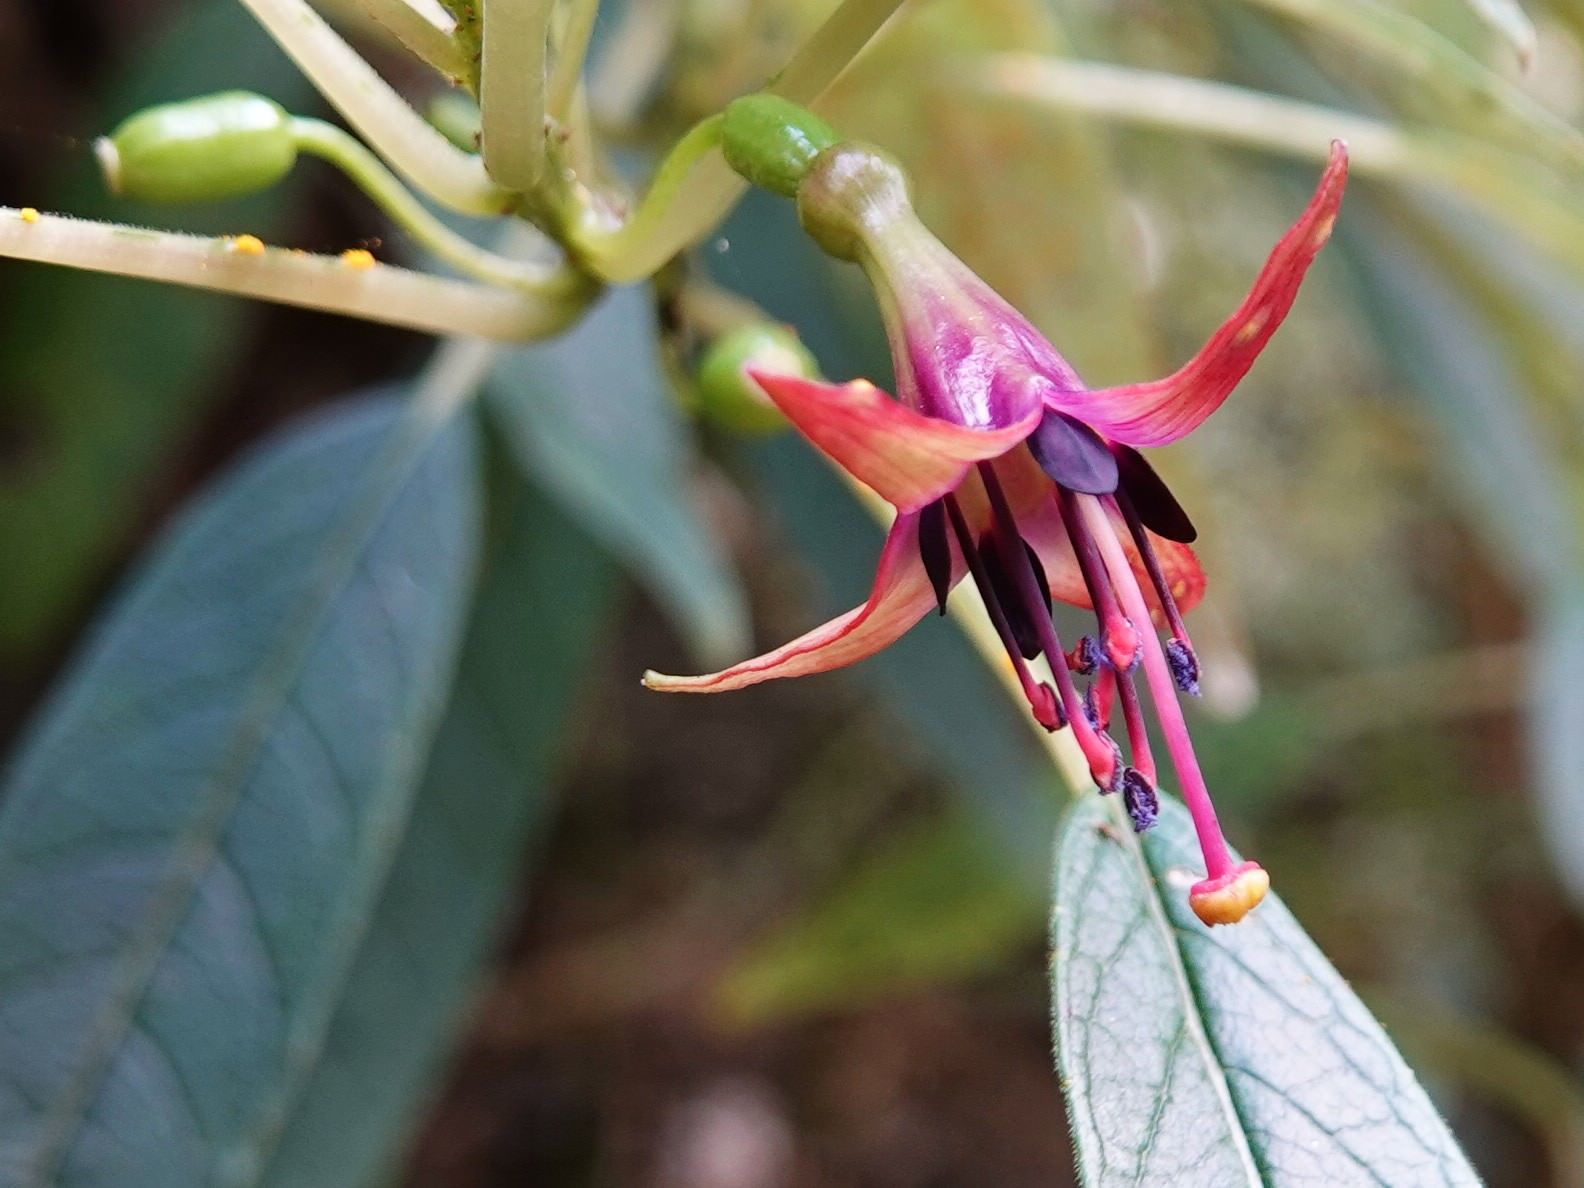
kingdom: Plantae
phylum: Tracheophyta
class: Magnoliopsida
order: Myrtales
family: Onagraceae
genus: Fuchsia
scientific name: Fuchsia excorticata
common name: Tree fuchsia
